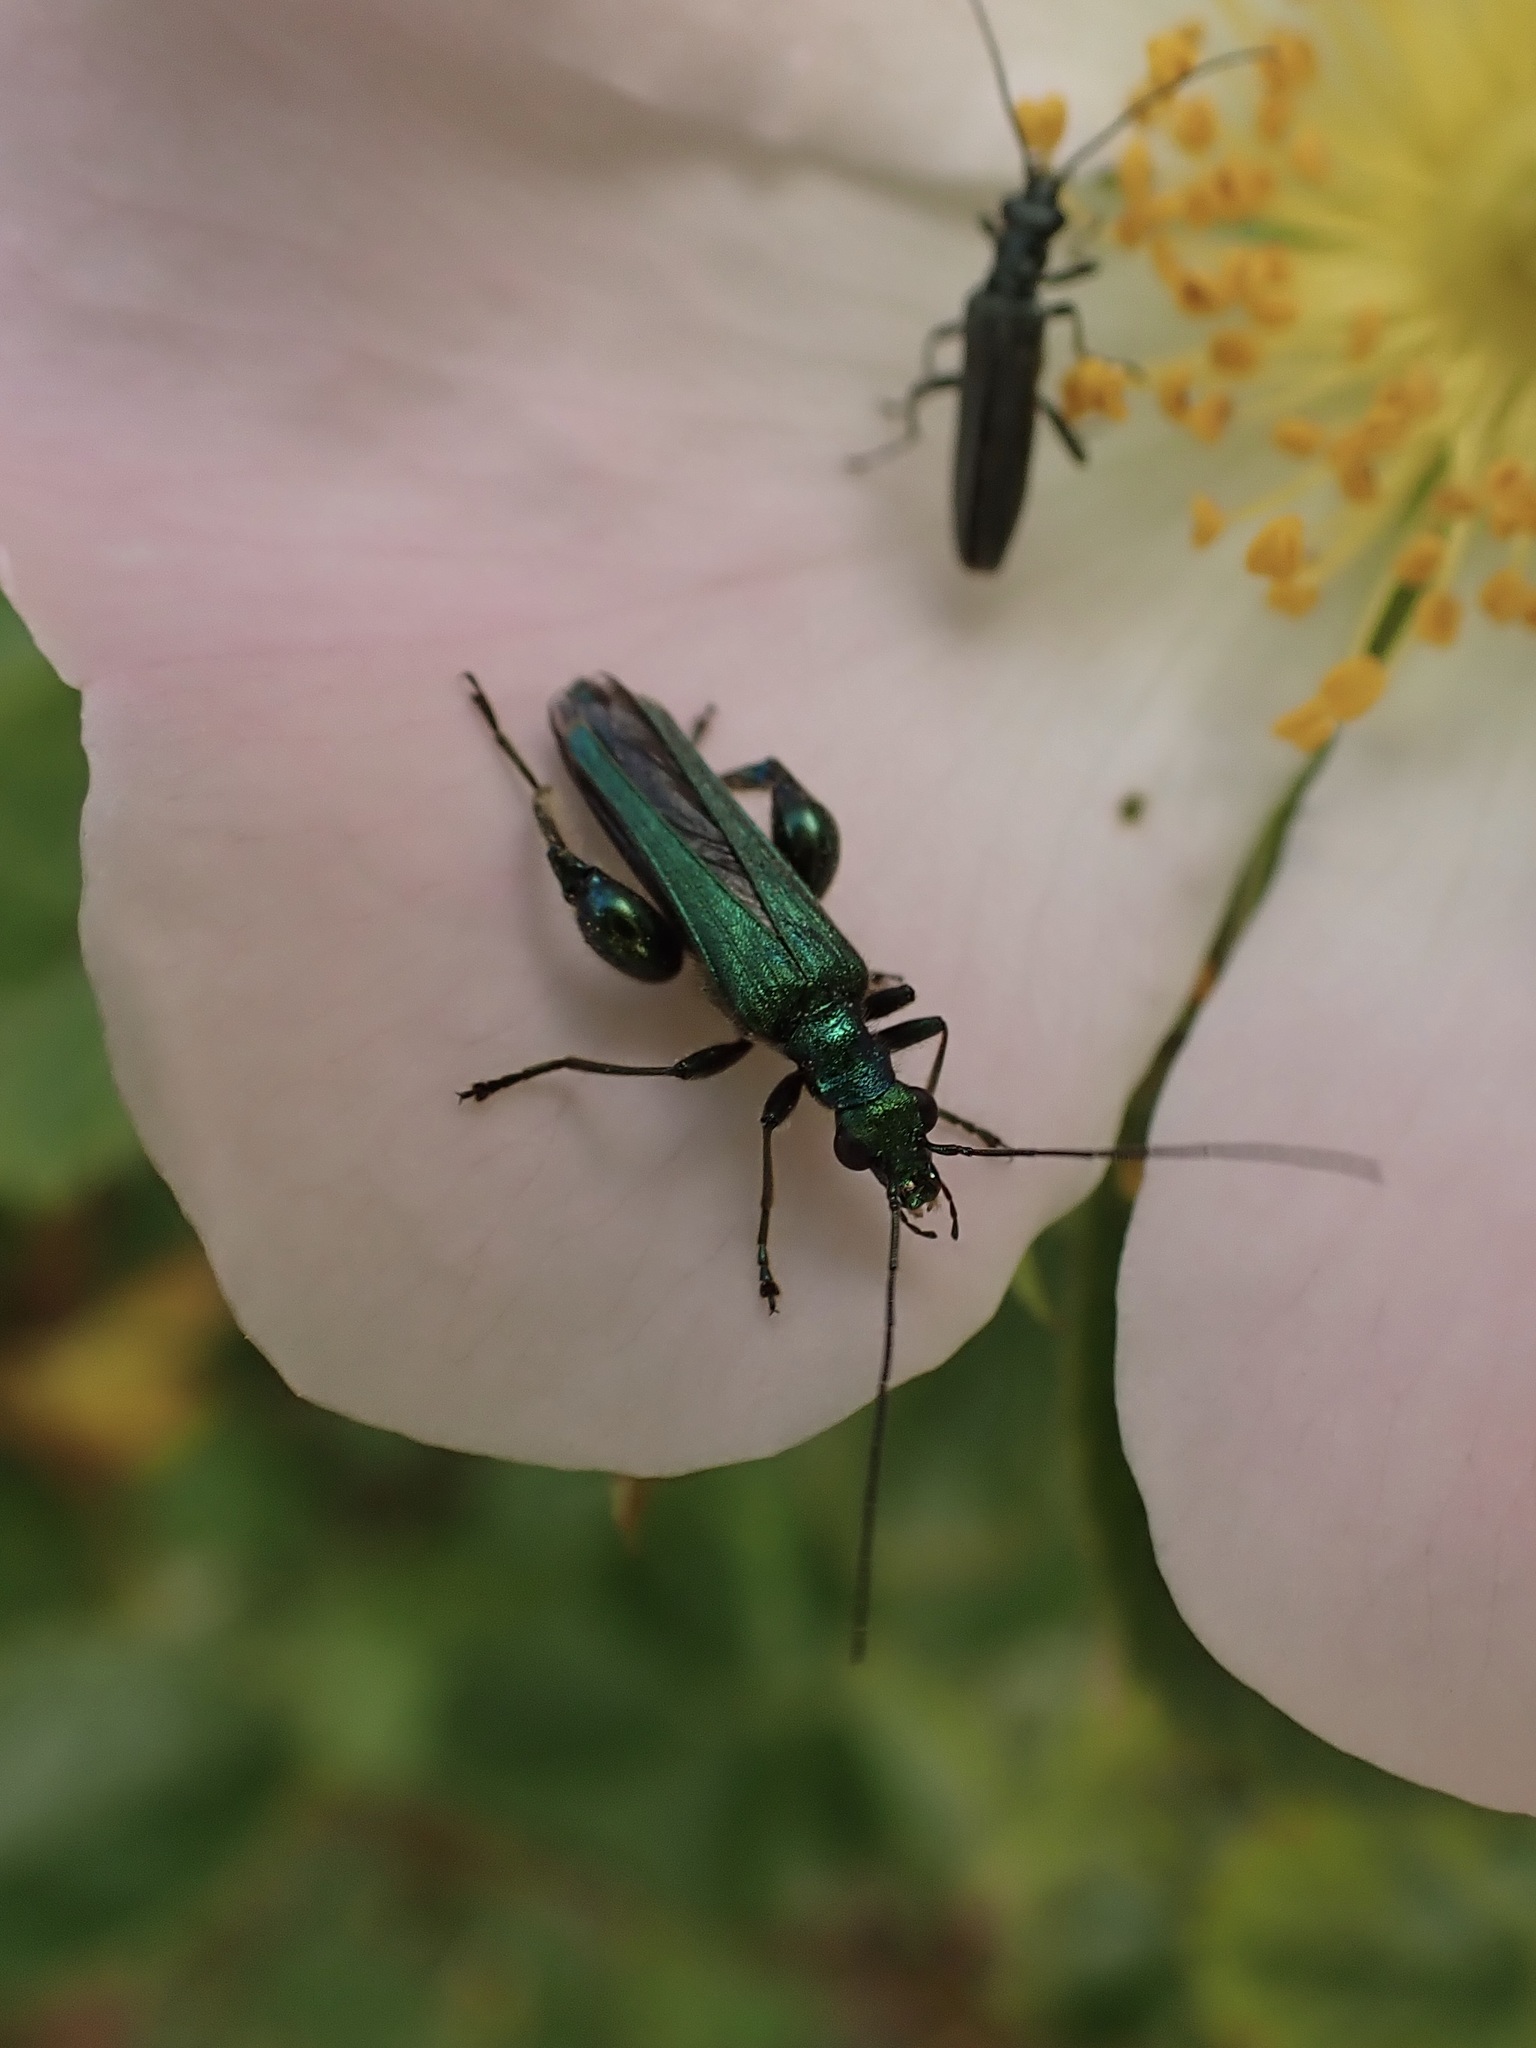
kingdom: Animalia
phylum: Arthropoda
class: Insecta
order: Coleoptera
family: Oedemeridae
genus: Oedemera
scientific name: Oedemera nobilis
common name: Swollen-thighed beetle
